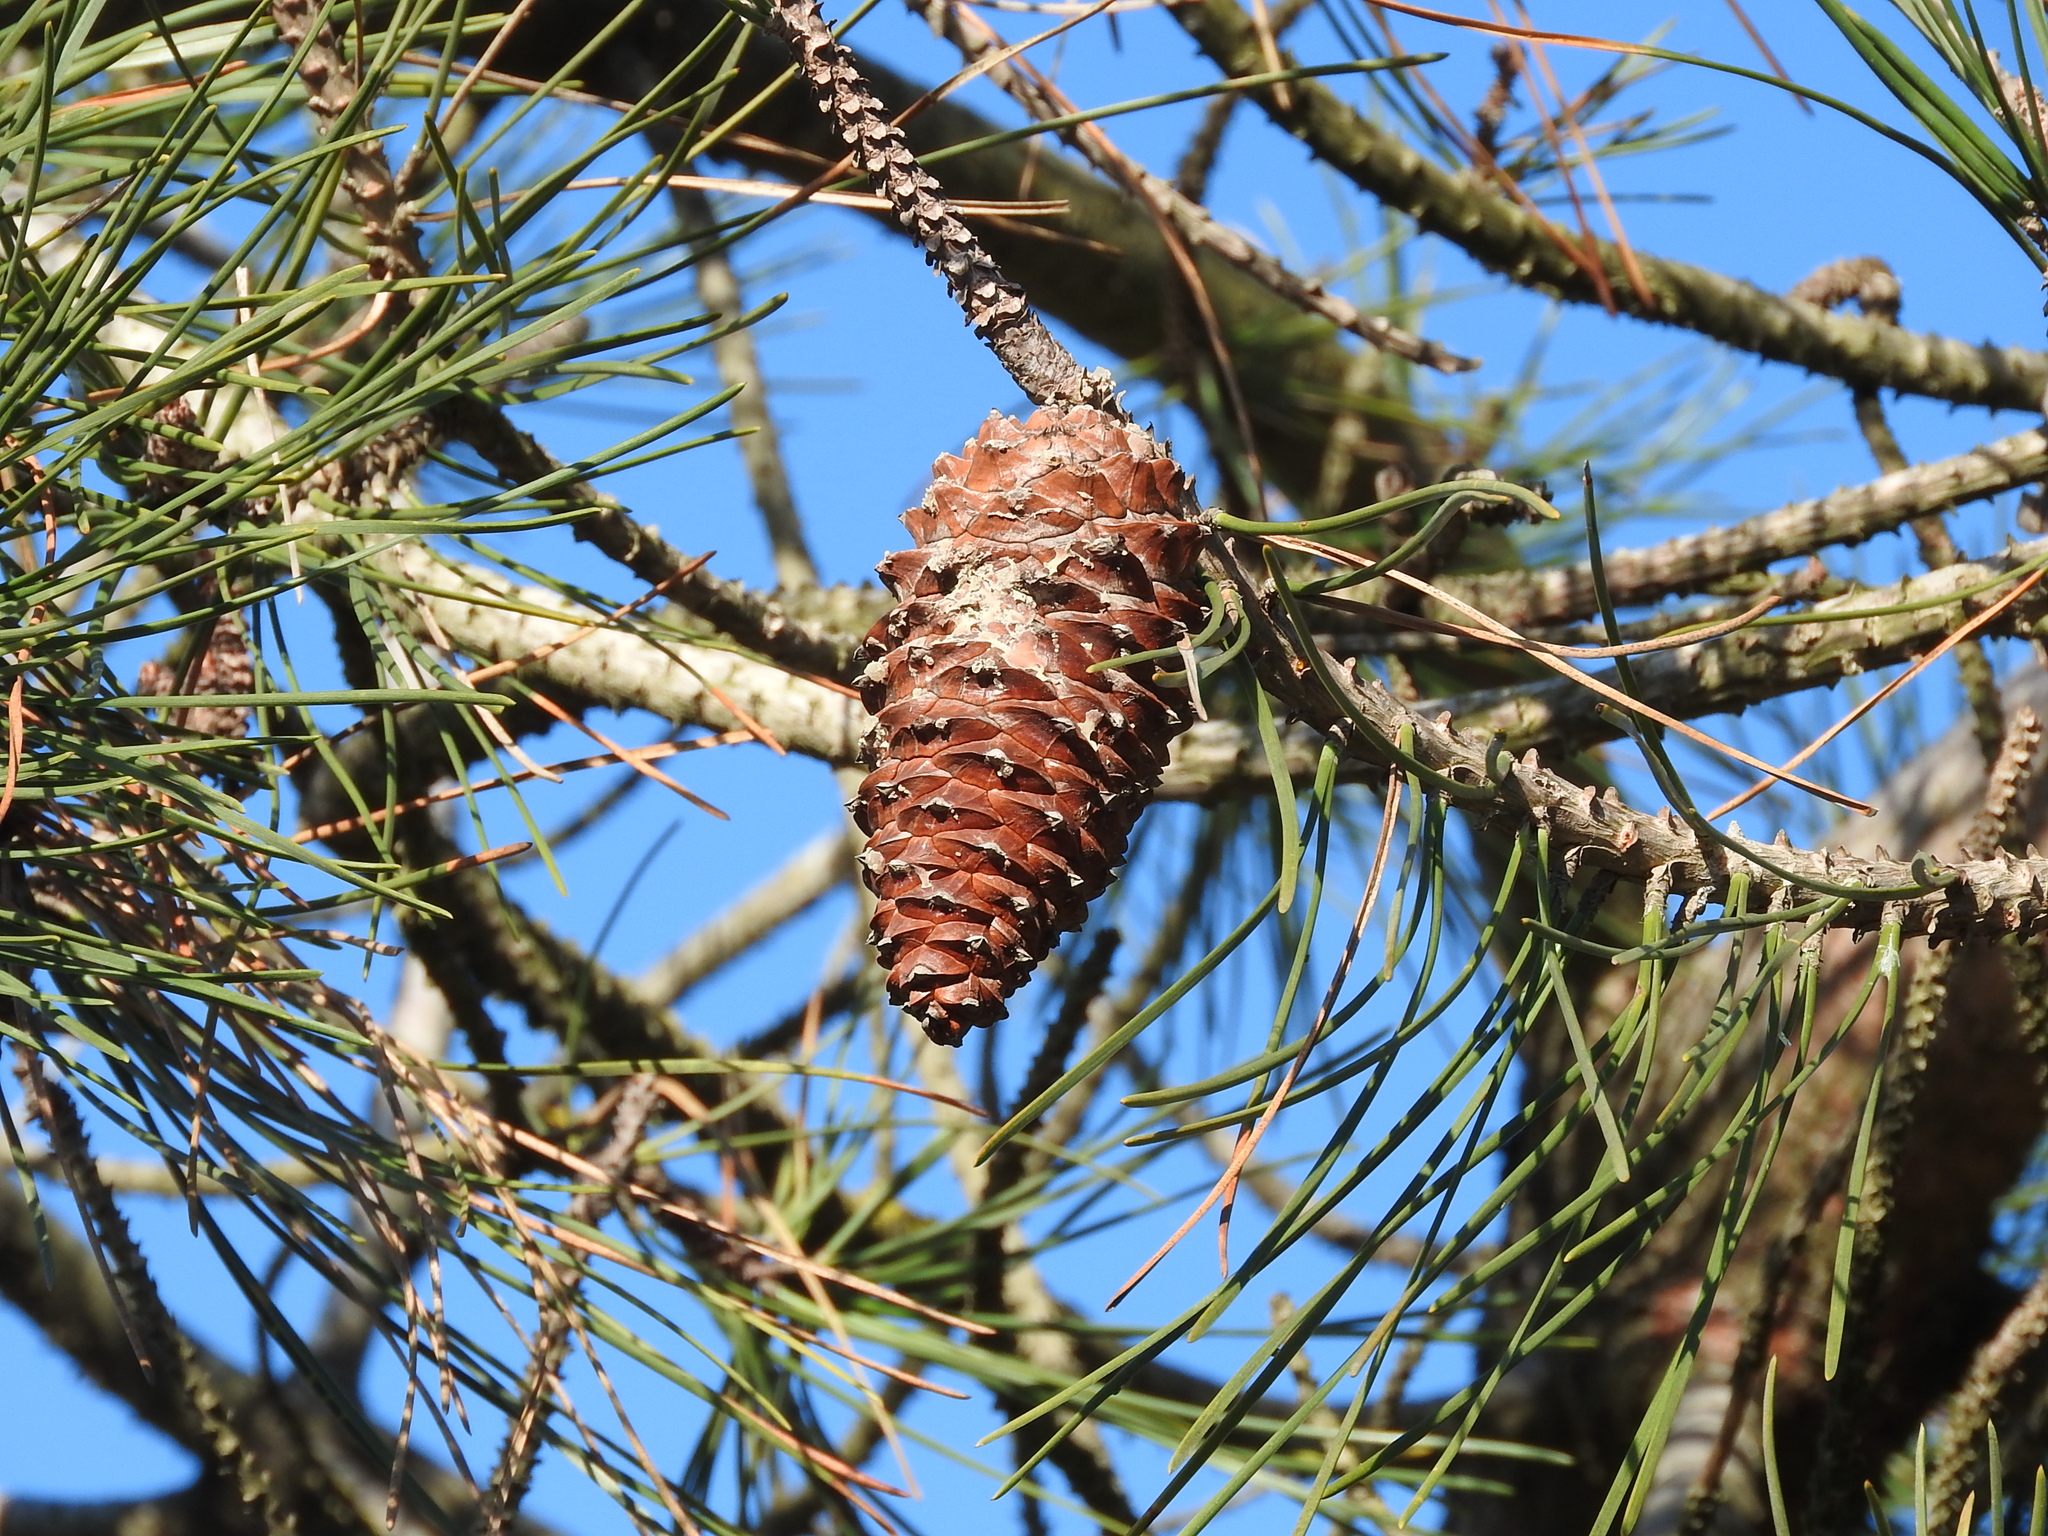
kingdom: Plantae
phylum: Tracheophyta
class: Pinopsida
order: Pinales
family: Pinaceae
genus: Pinus
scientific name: Pinus pinaster
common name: Maritime pine
